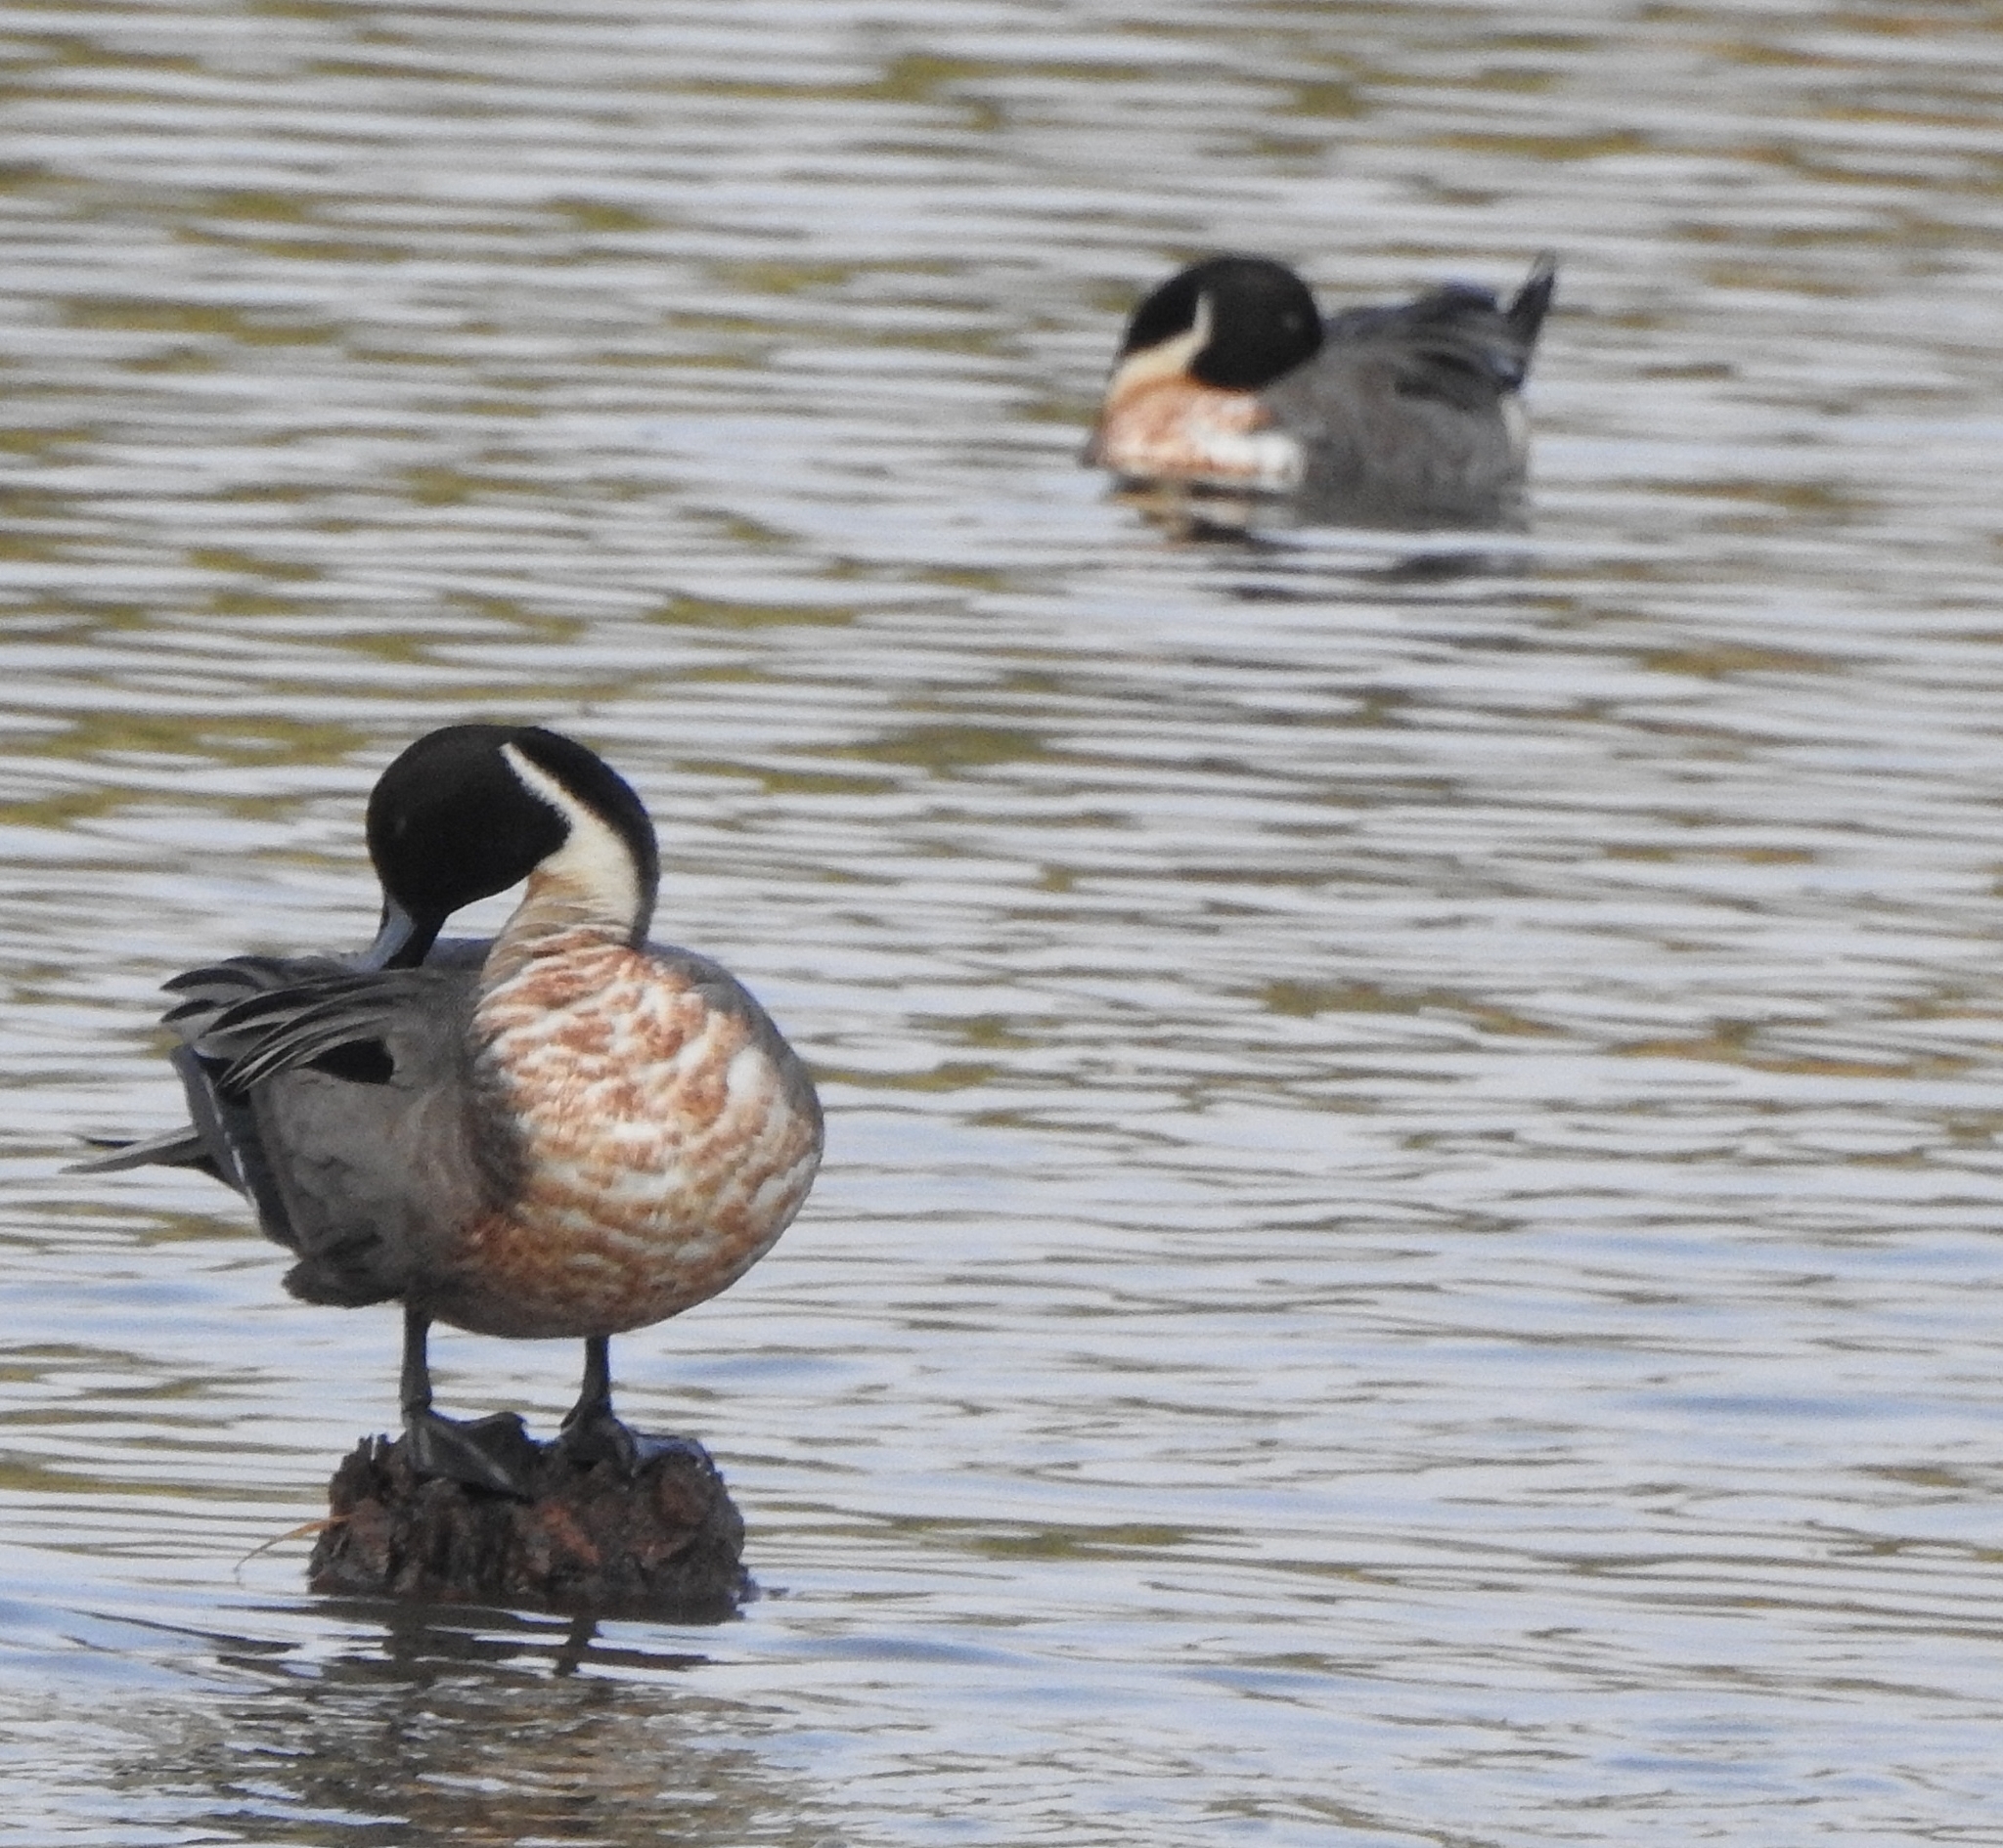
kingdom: Animalia
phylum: Chordata
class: Aves
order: Anseriformes
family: Anatidae
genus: Anas
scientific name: Anas acuta
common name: Northern pintail
